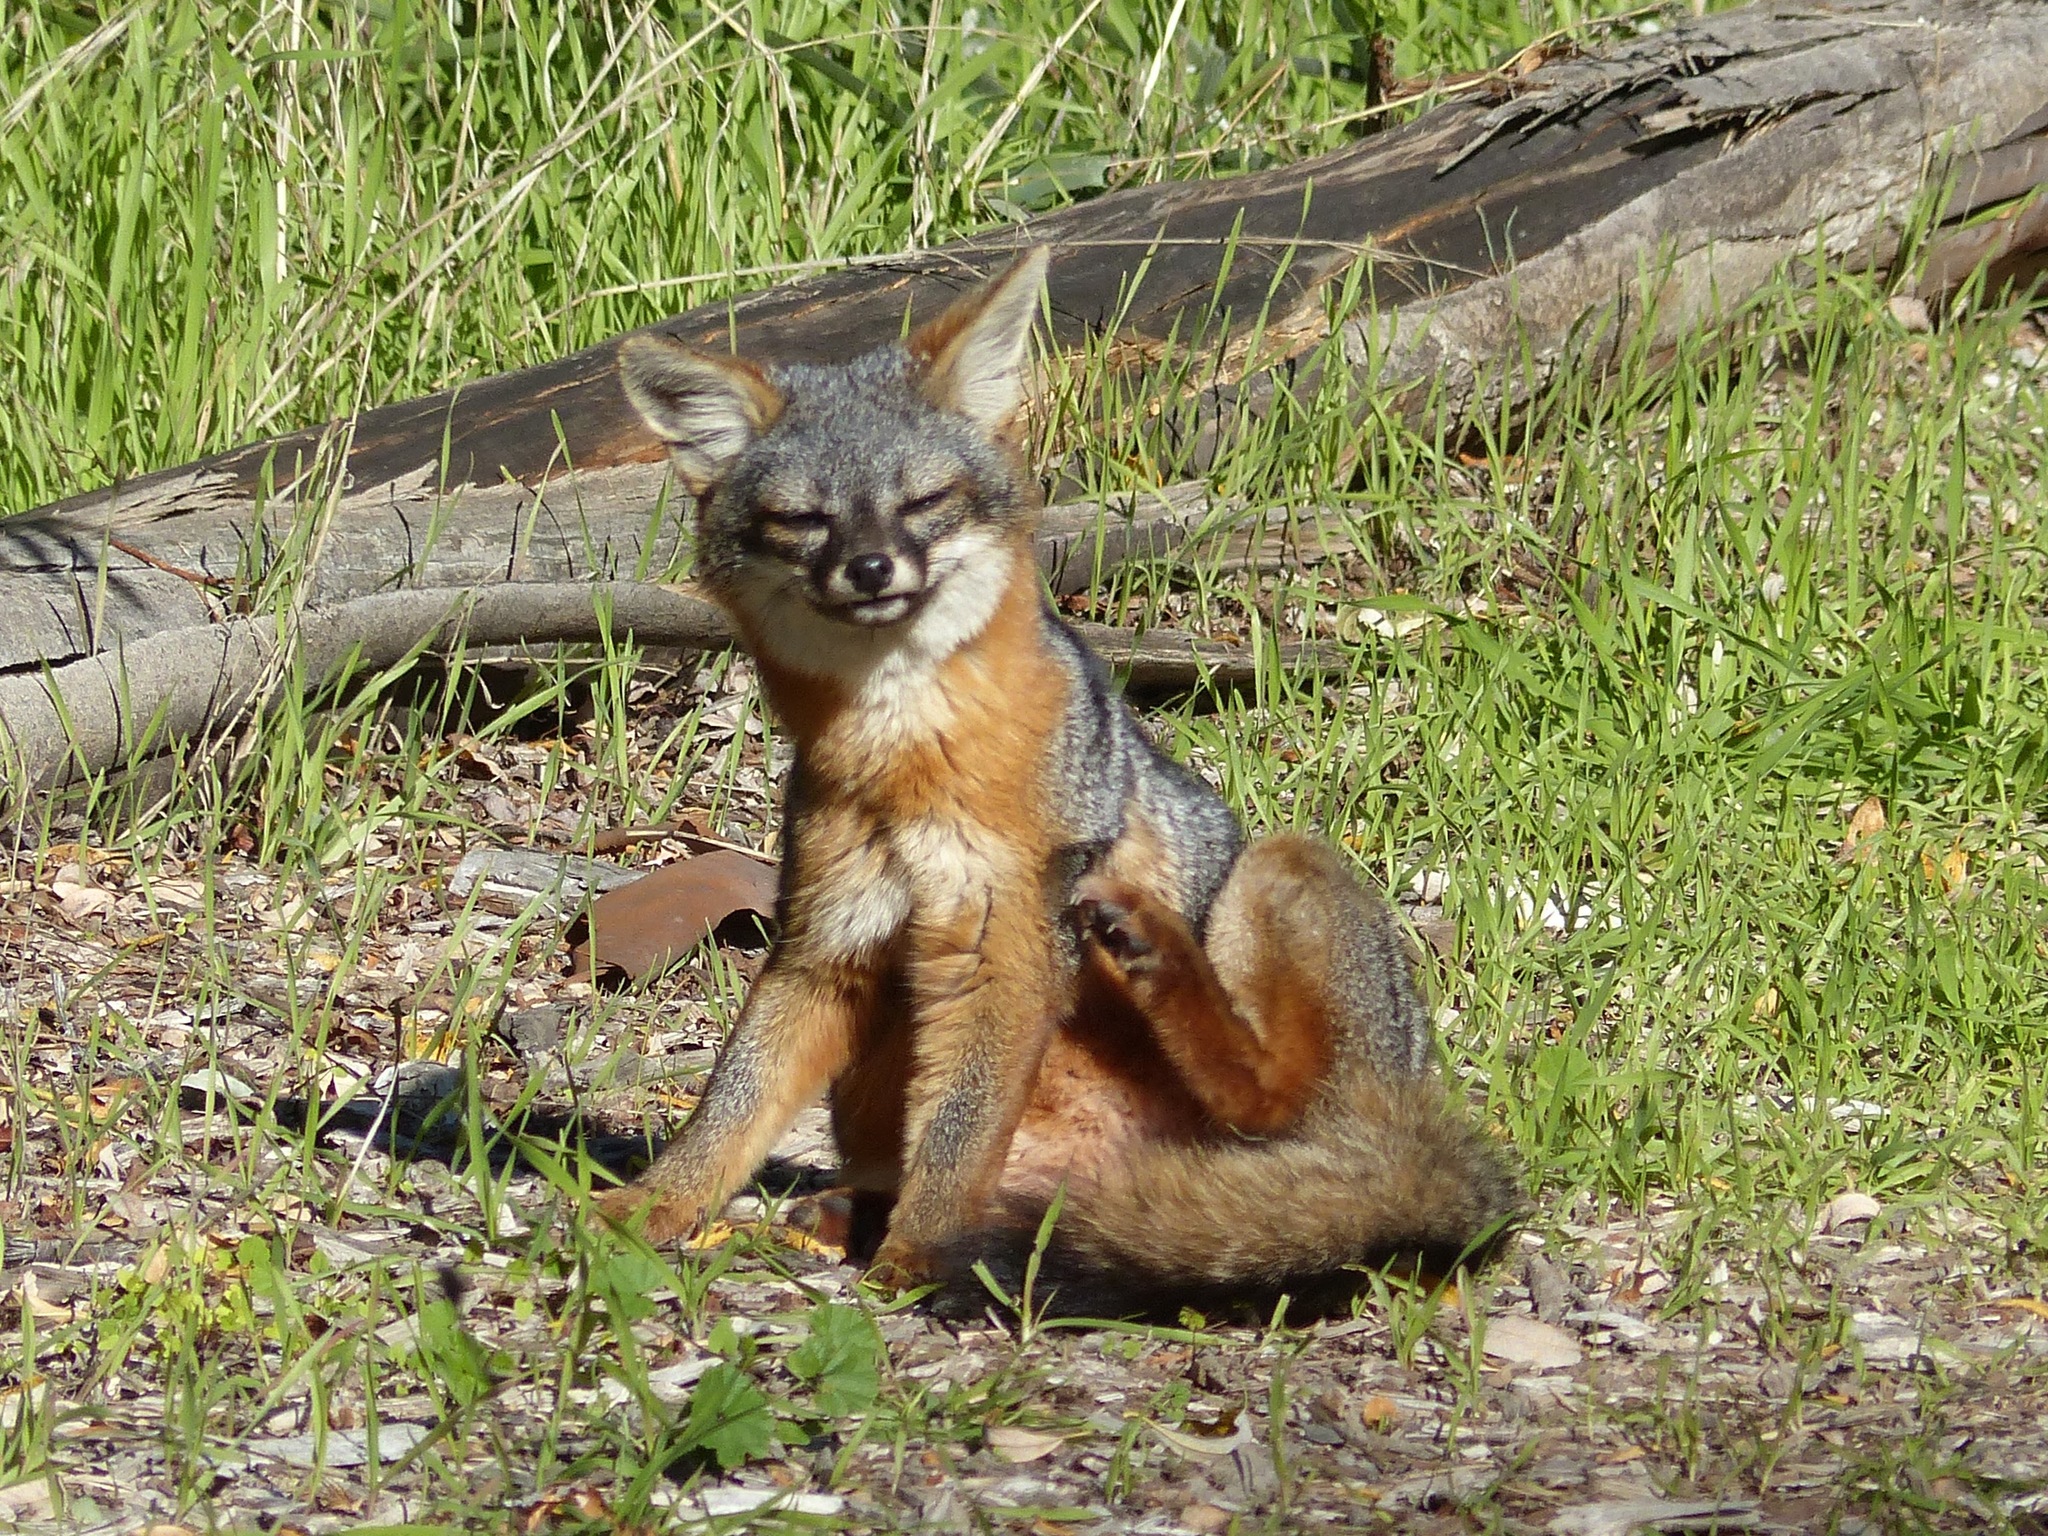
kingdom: Animalia
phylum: Chordata
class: Mammalia
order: Carnivora
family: Canidae
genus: Urocyon
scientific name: Urocyon littoralis
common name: Island gray fox
